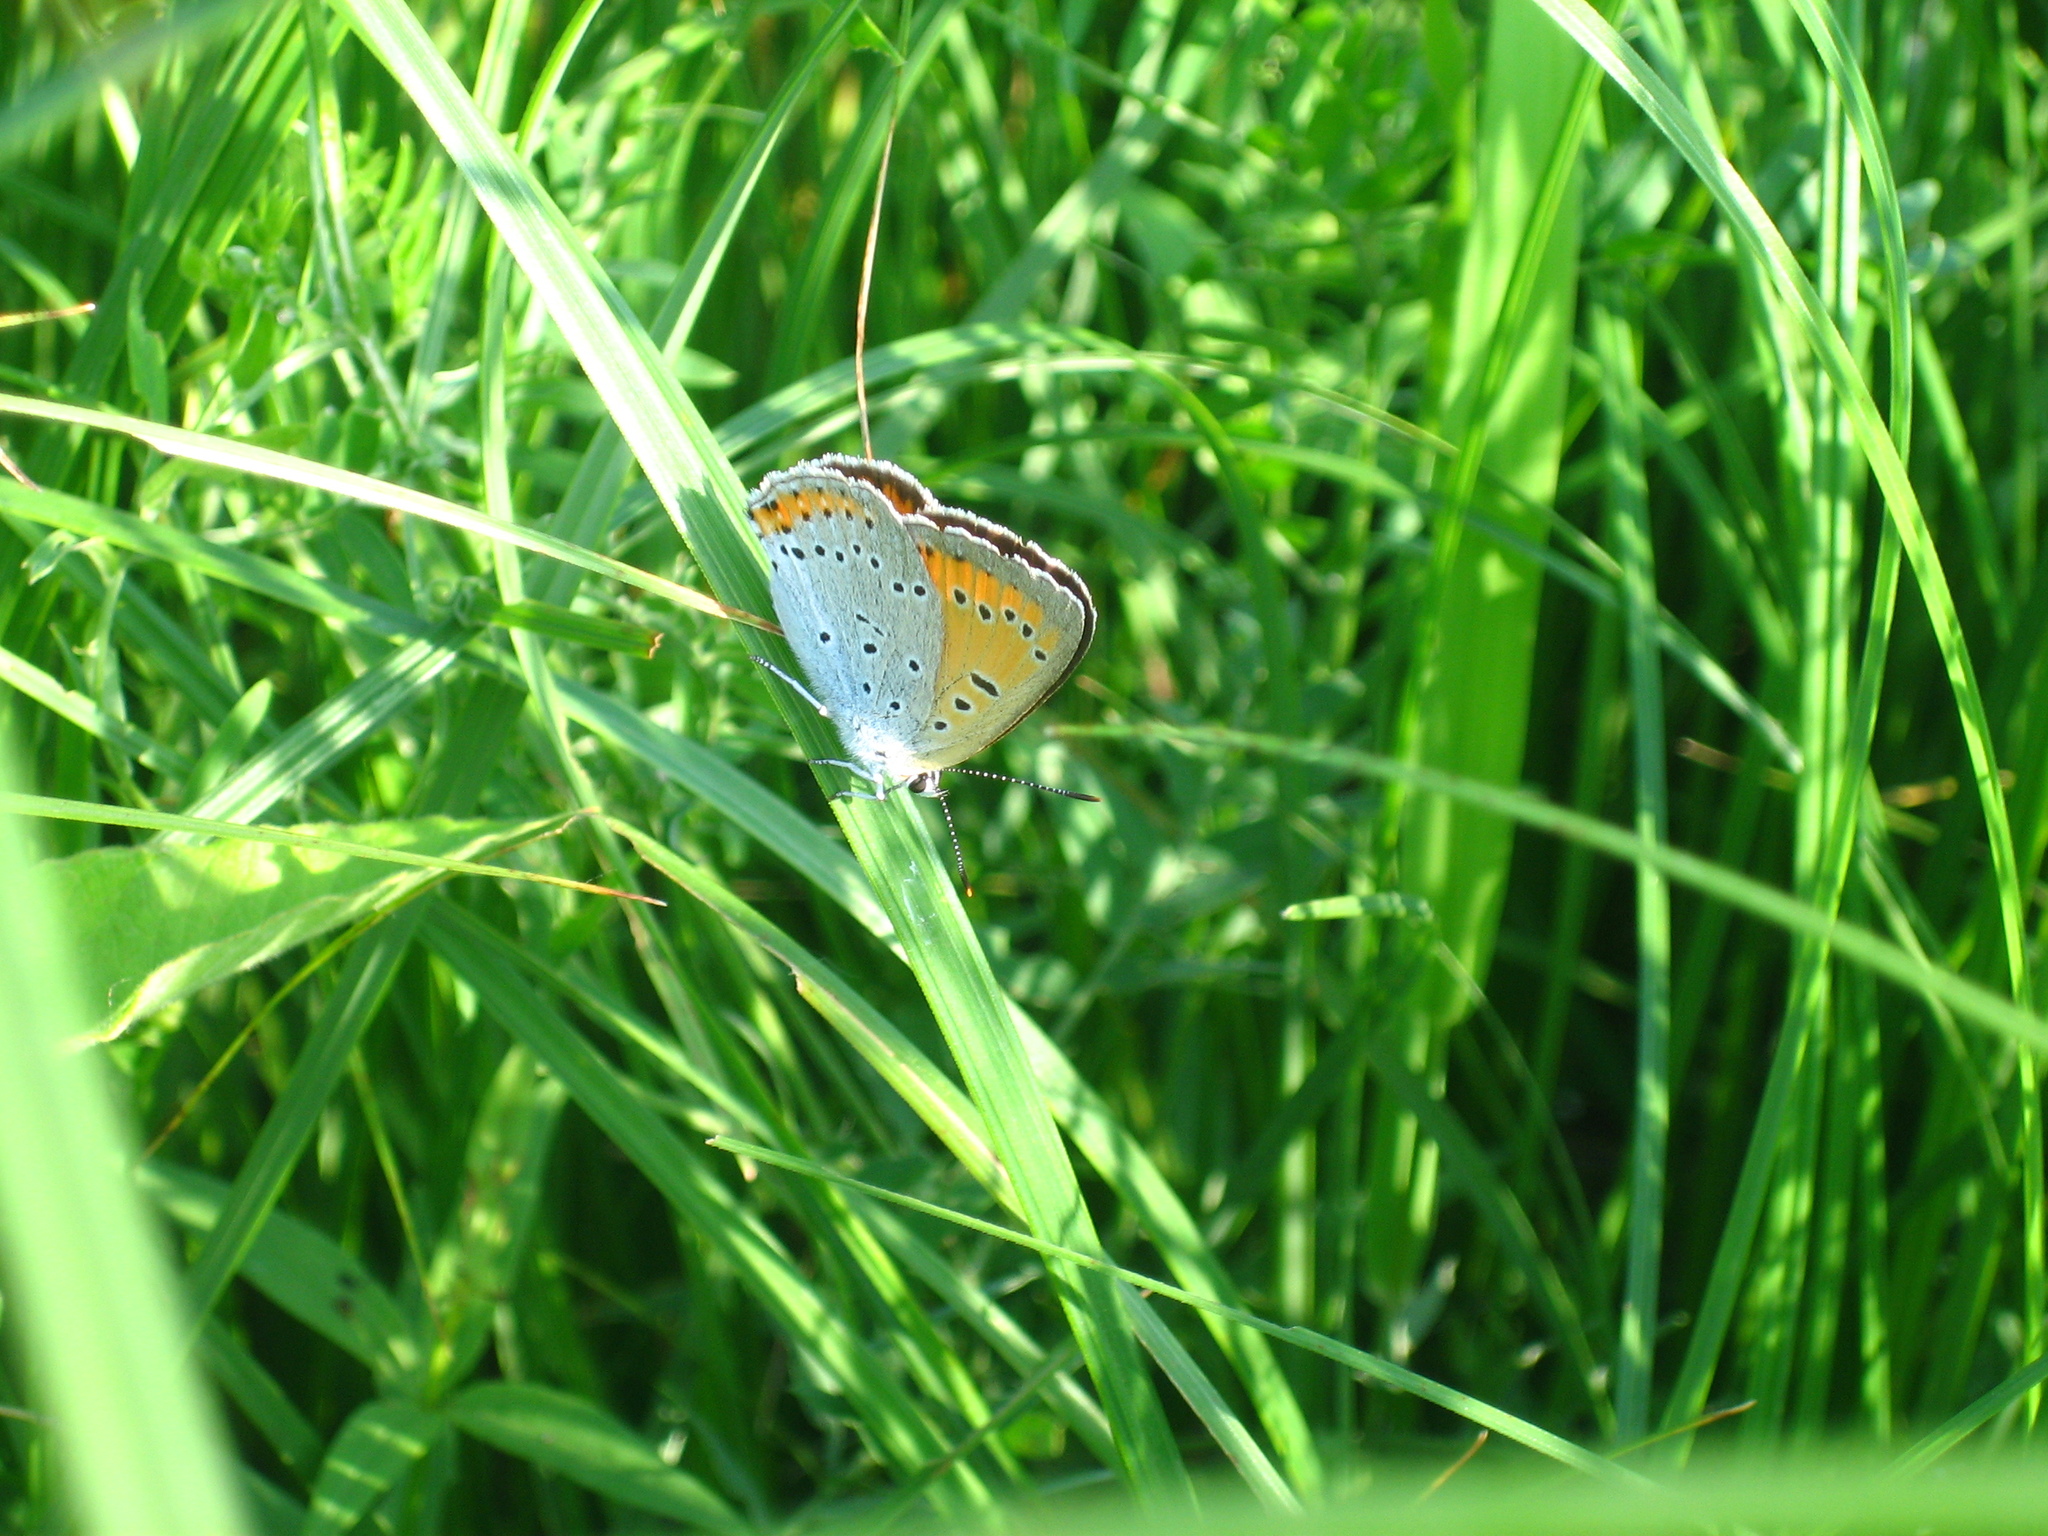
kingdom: Animalia
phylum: Arthropoda
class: Insecta
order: Lepidoptera
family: Lycaenidae
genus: Lycaena
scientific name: Lycaena dispar
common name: Large copper
